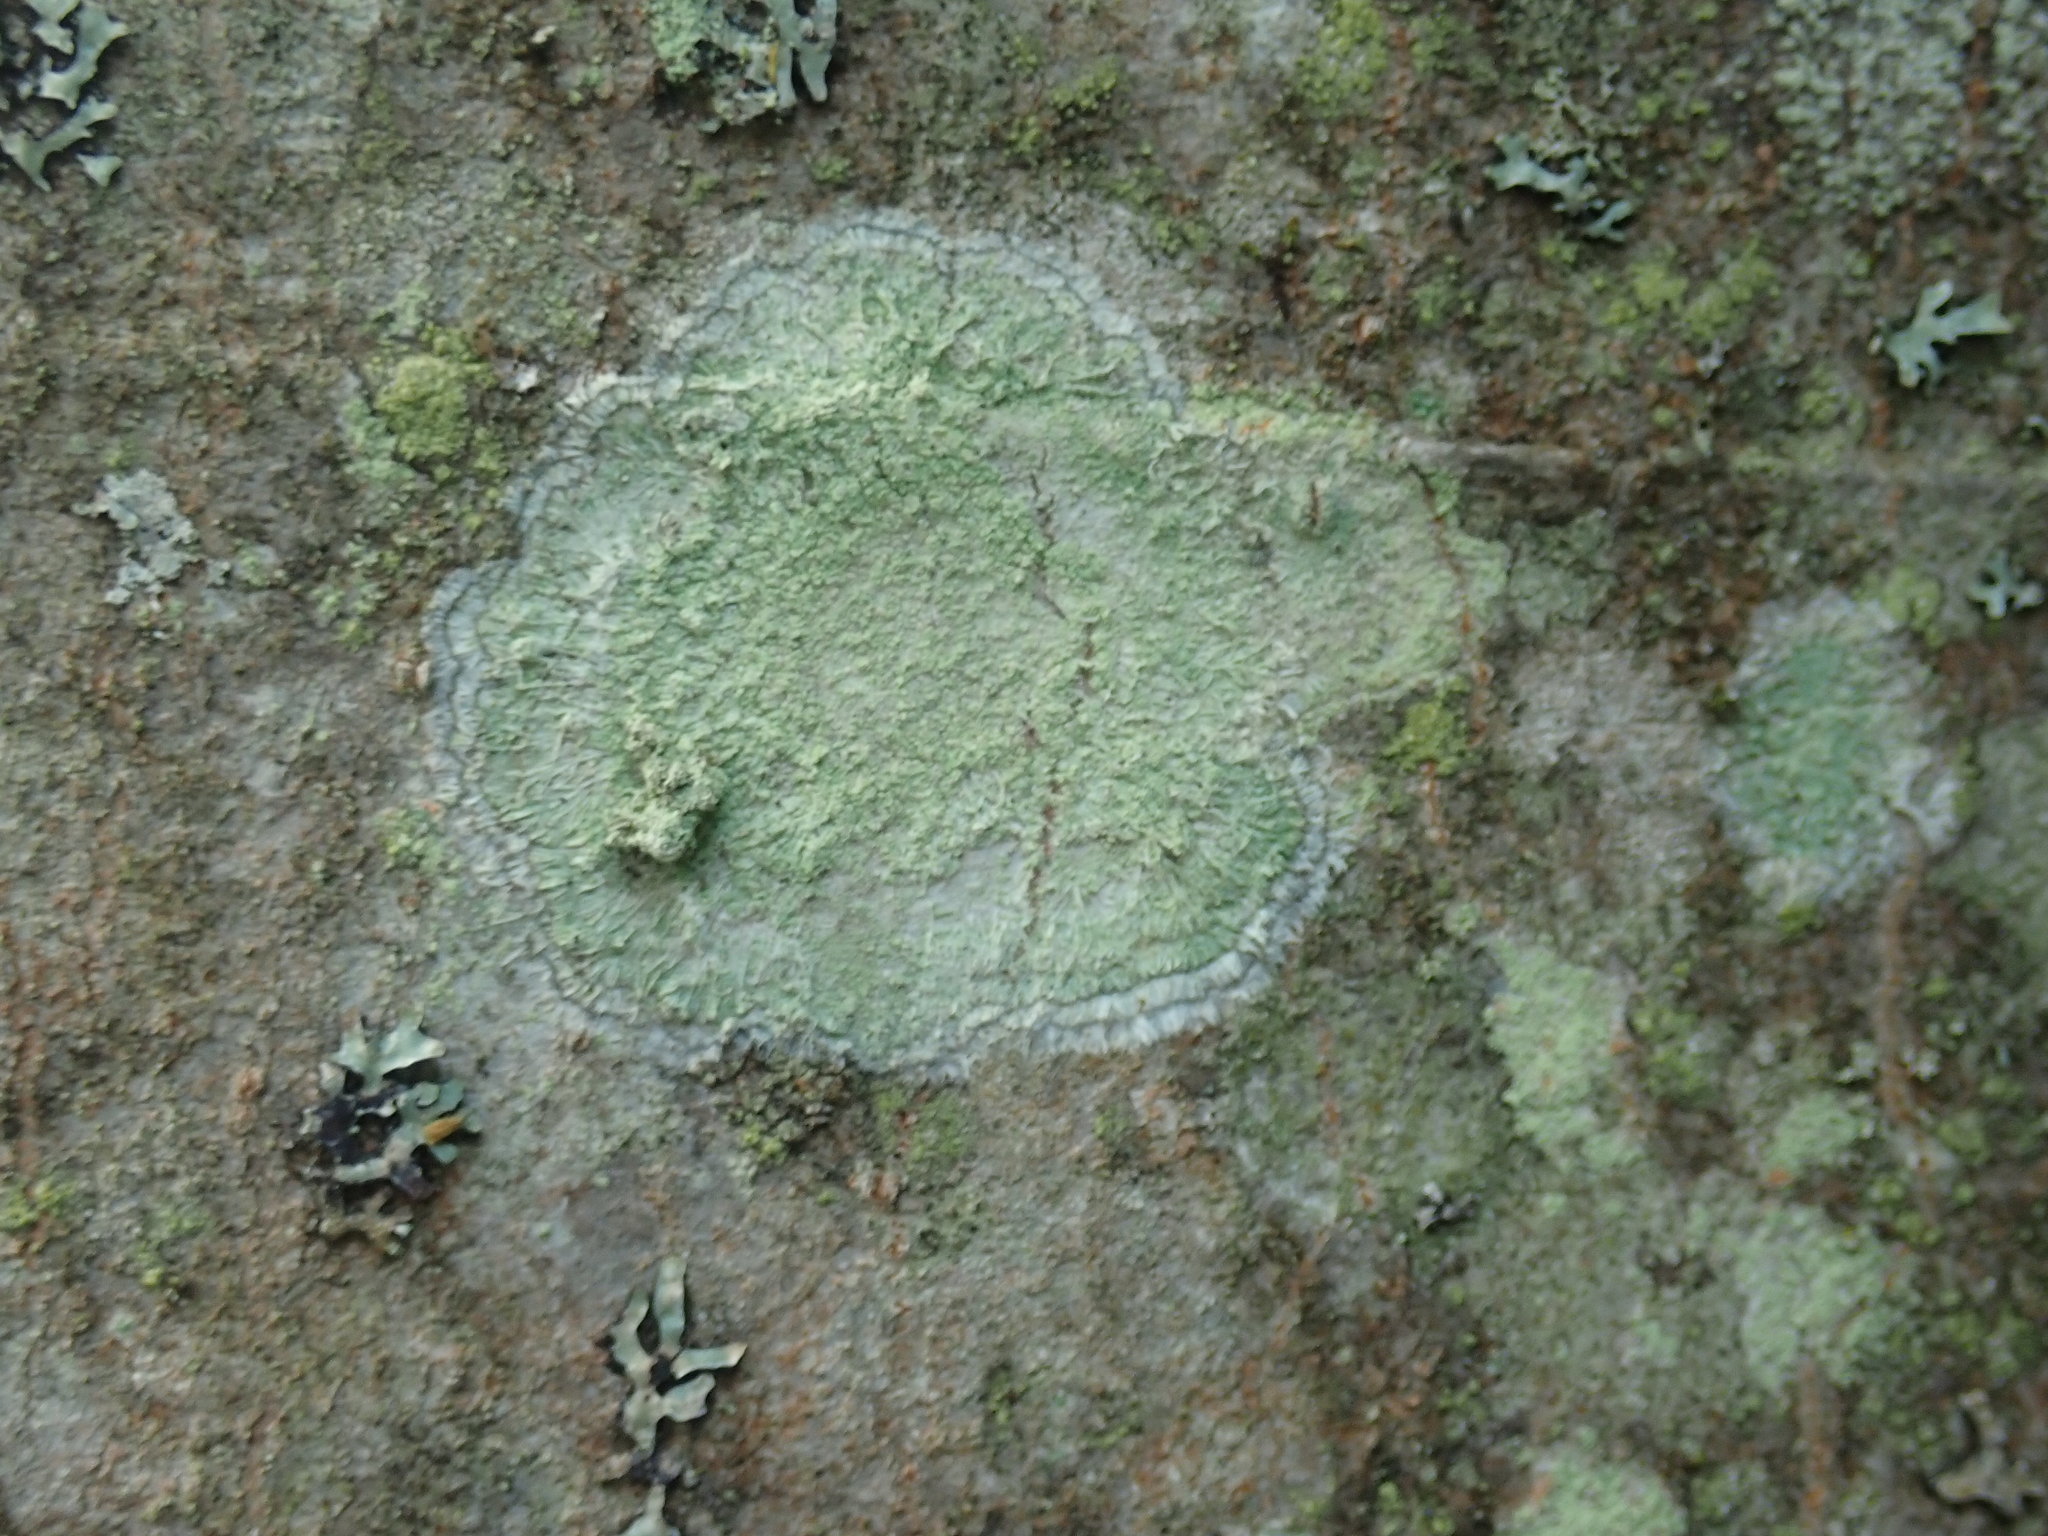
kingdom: Fungi
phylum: Ascomycota
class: Lecanoromycetes
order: Pertusariales
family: Pertusariaceae
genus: Verseghya
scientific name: Verseghya thysanophora
